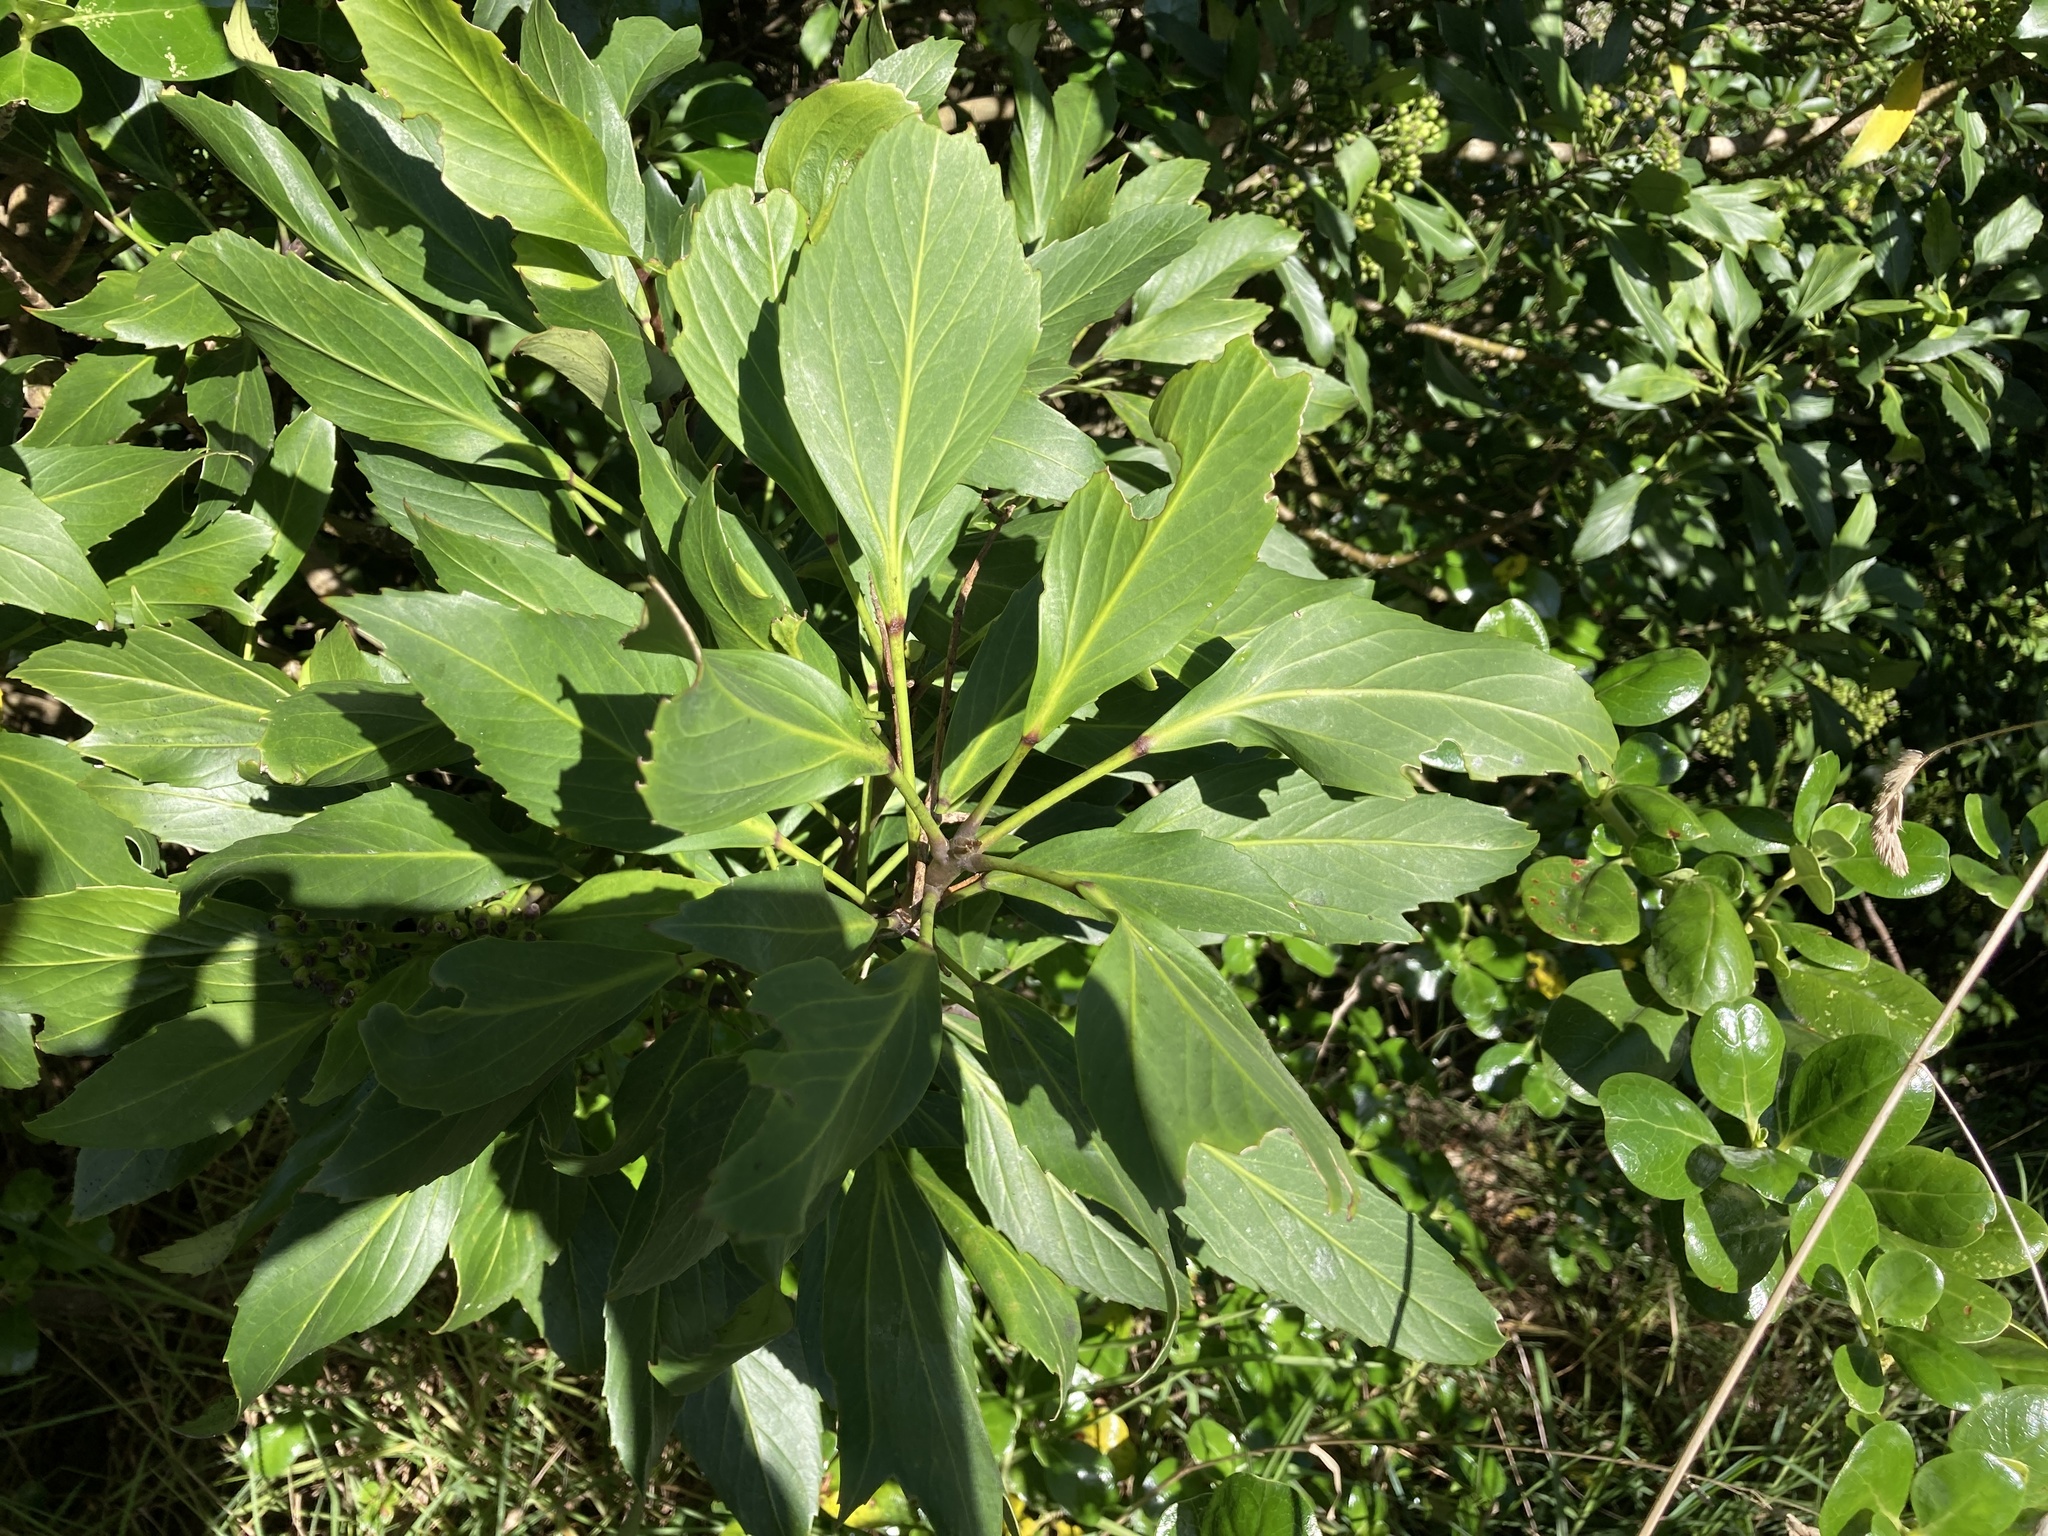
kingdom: Plantae
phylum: Tracheophyta
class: Magnoliopsida
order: Apiales
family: Araliaceae
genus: Pseudopanax
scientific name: Pseudopanax
